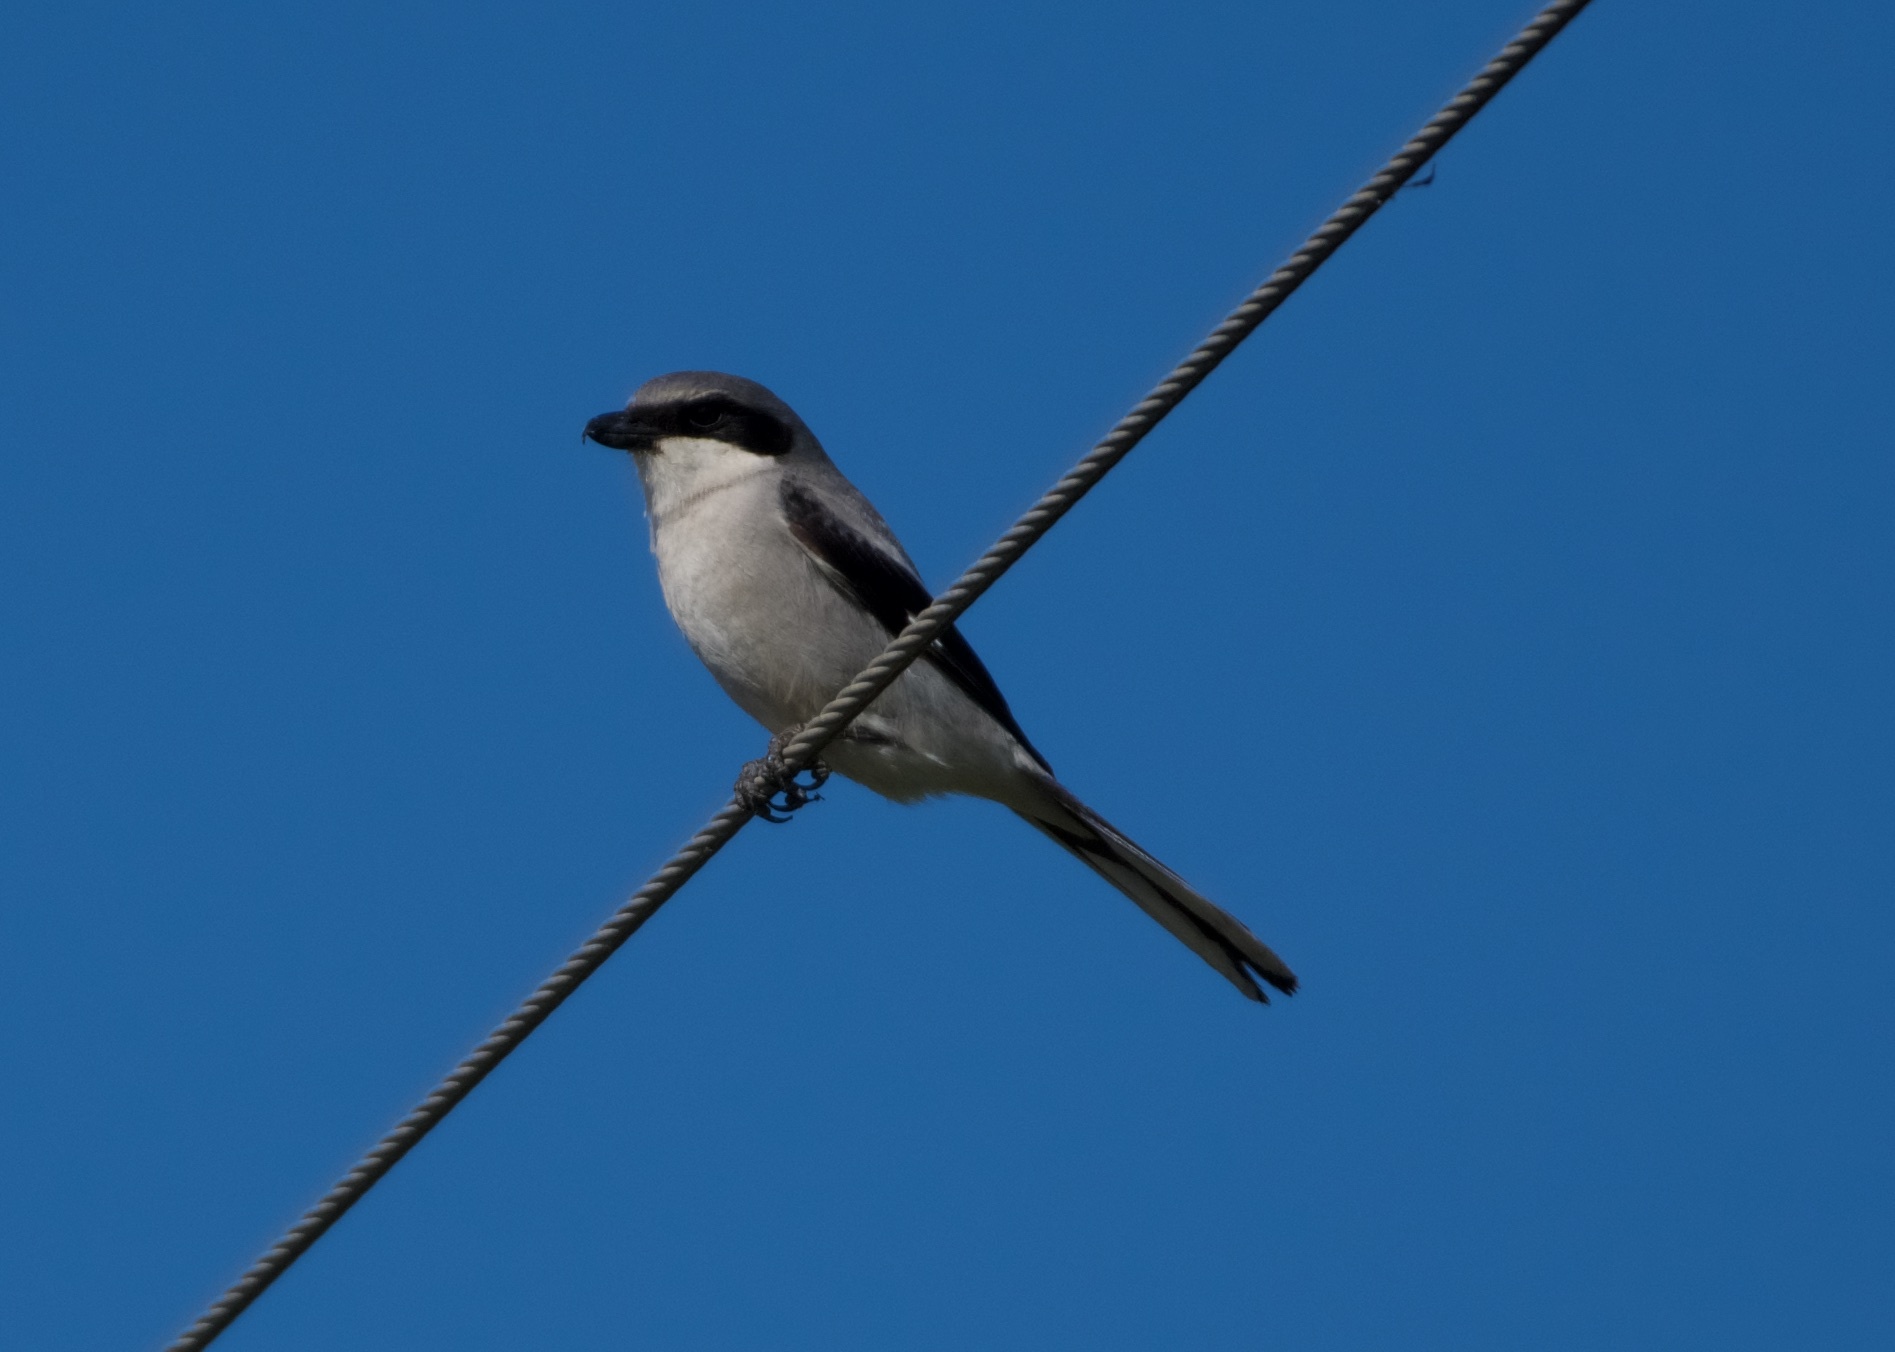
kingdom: Animalia
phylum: Chordata
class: Aves
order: Passeriformes
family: Laniidae
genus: Lanius
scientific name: Lanius ludovicianus
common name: Loggerhead shrike
